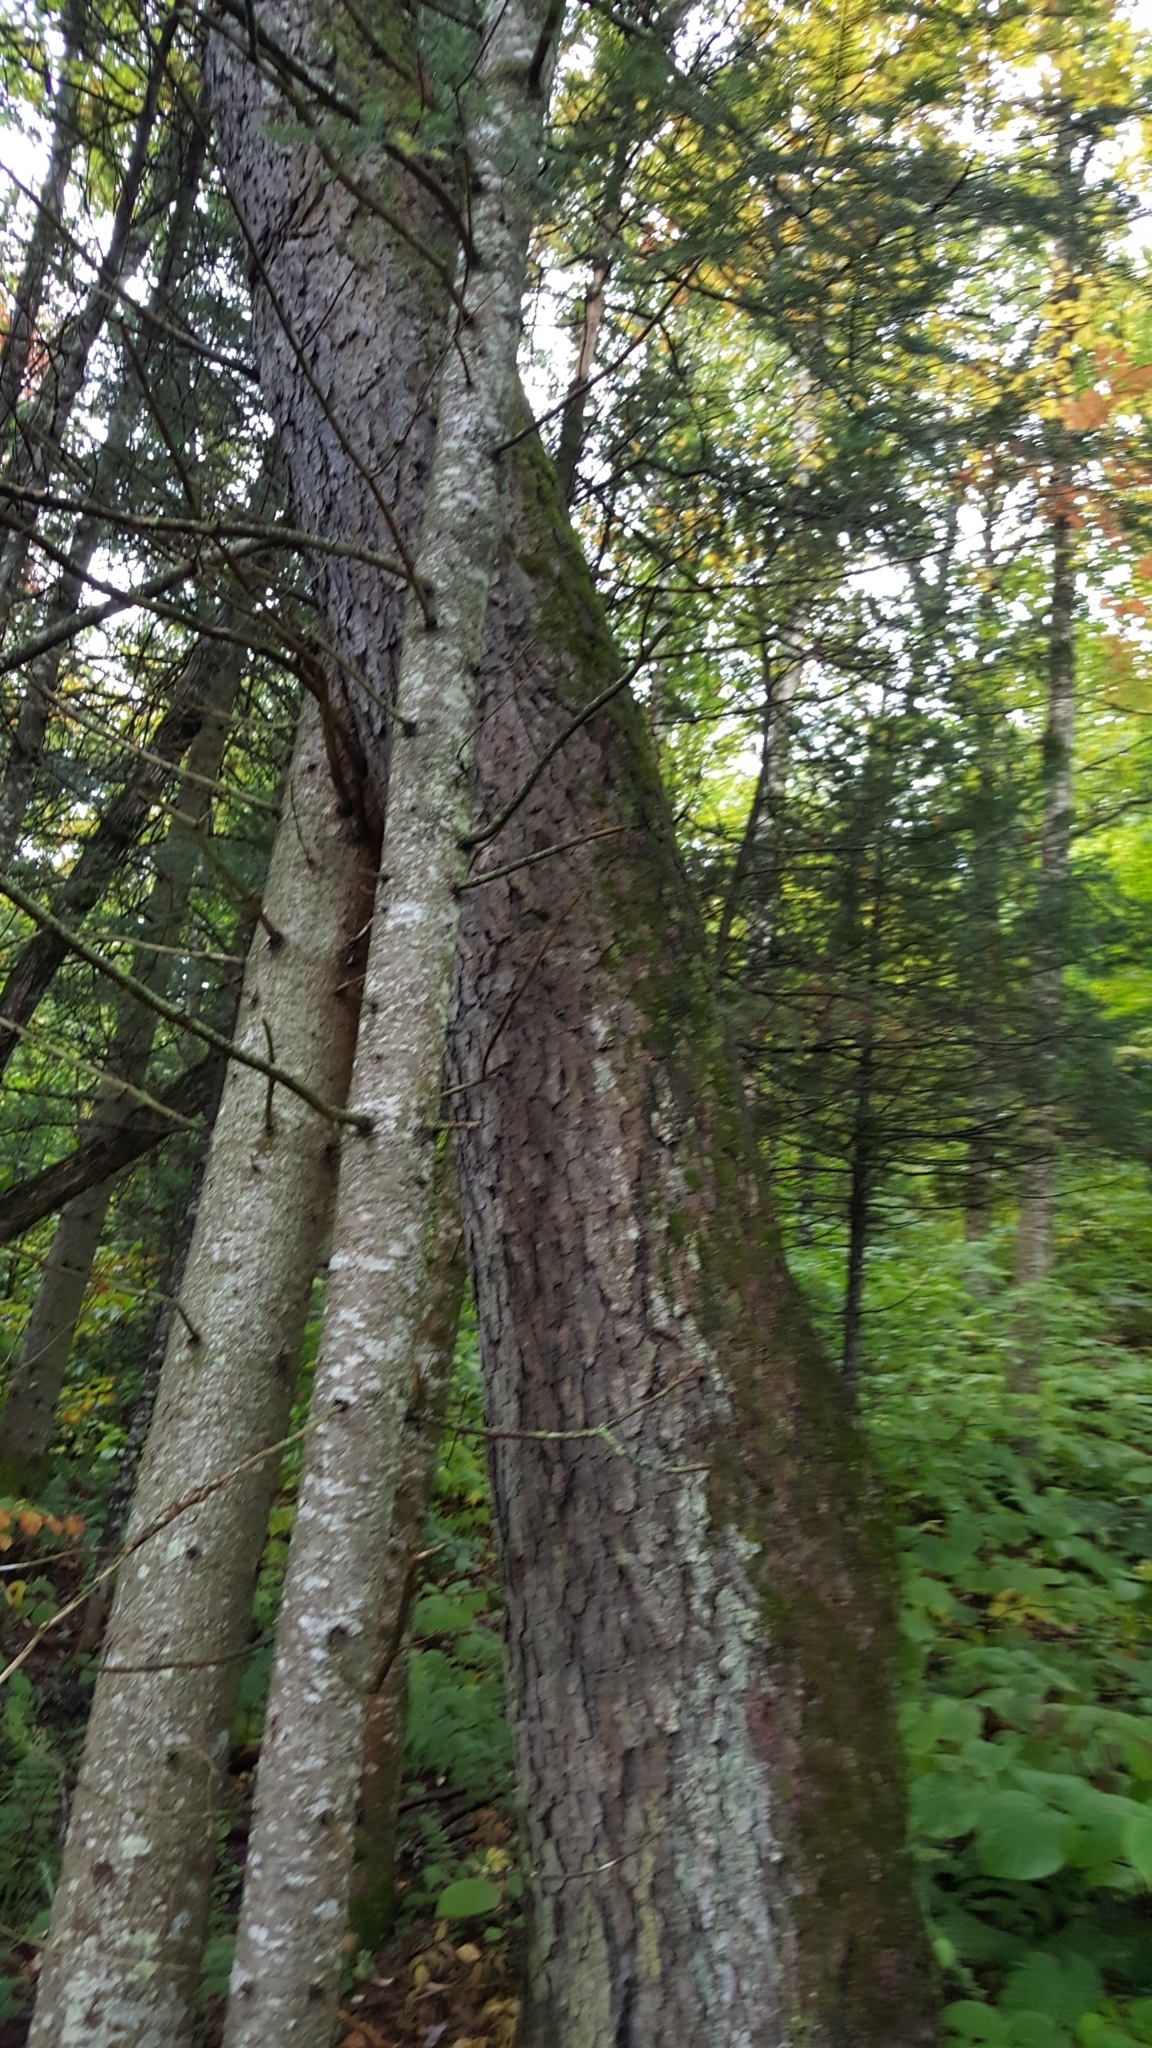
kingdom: Plantae
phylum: Tracheophyta
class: Magnoliopsida
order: Rosales
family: Rosaceae
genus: Prunus
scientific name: Prunus serotina
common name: Black cherry
